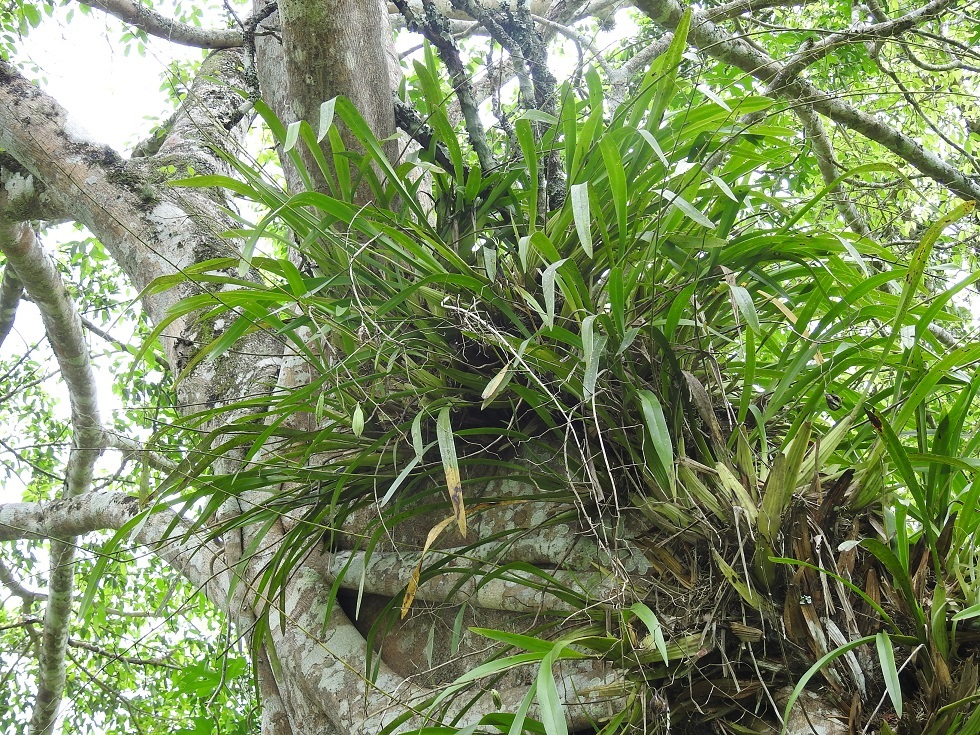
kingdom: Plantae
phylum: Tracheophyta
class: Liliopsida
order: Asparagales
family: Orchidaceae
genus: Oncidium
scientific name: Oncidium sphacelatum
